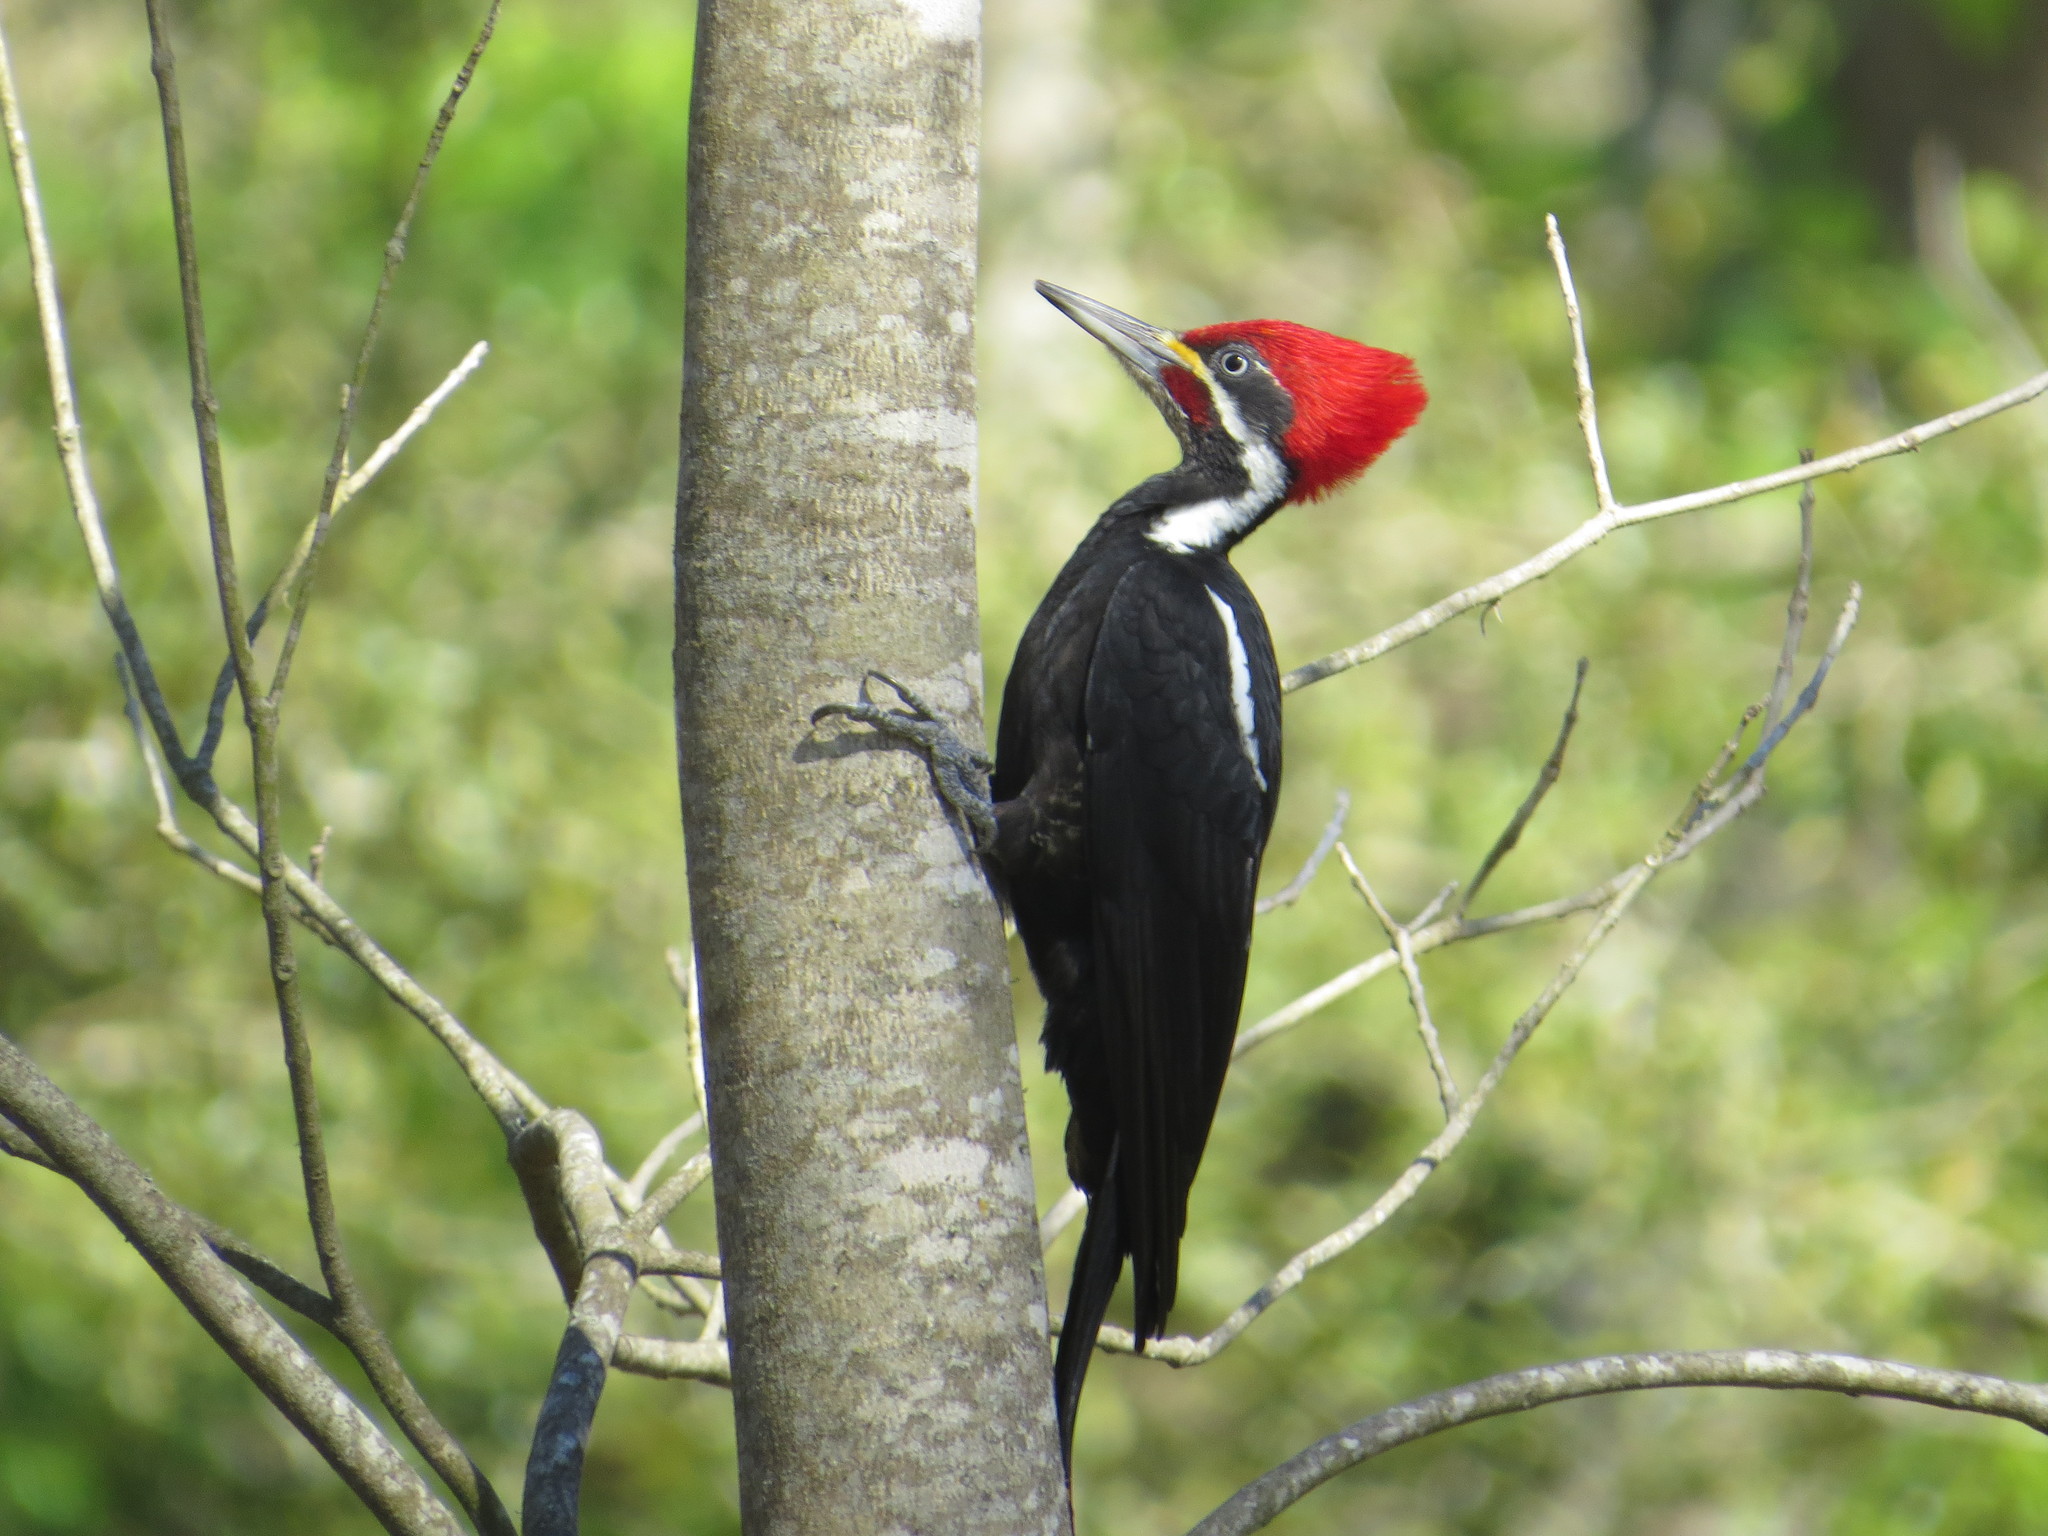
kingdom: Animalia
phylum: Chordata
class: Aves
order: Piciformes
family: Picidae
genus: Dryocopus
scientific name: Dryocopus schulzii
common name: Black-bodied woodpecker
